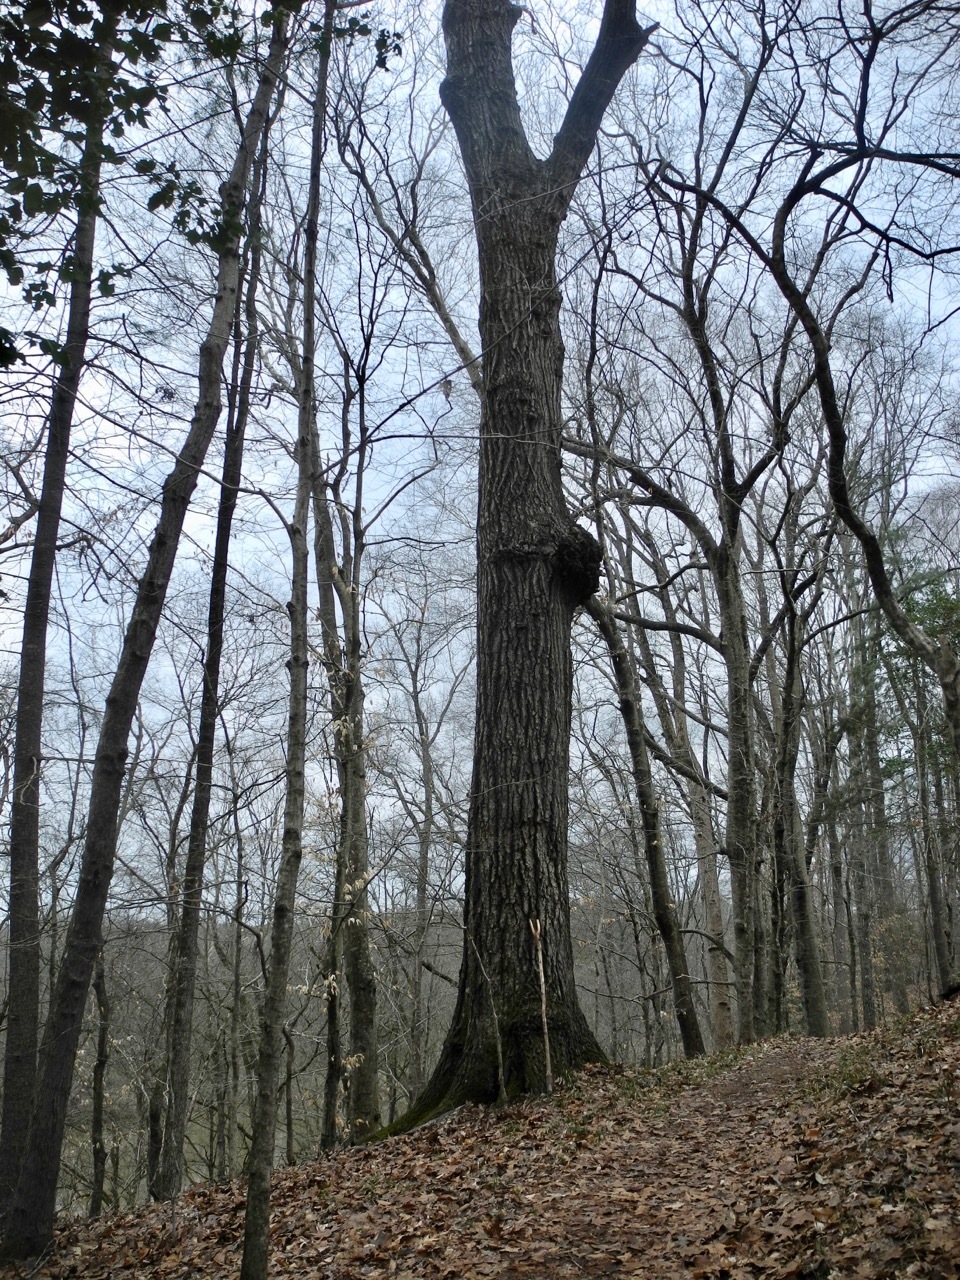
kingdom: Plantae
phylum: Tracheophyta
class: Magnoliopsida
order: Fagales
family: Fagaceae
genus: Quercus
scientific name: Quercus rubra
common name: Red oak
